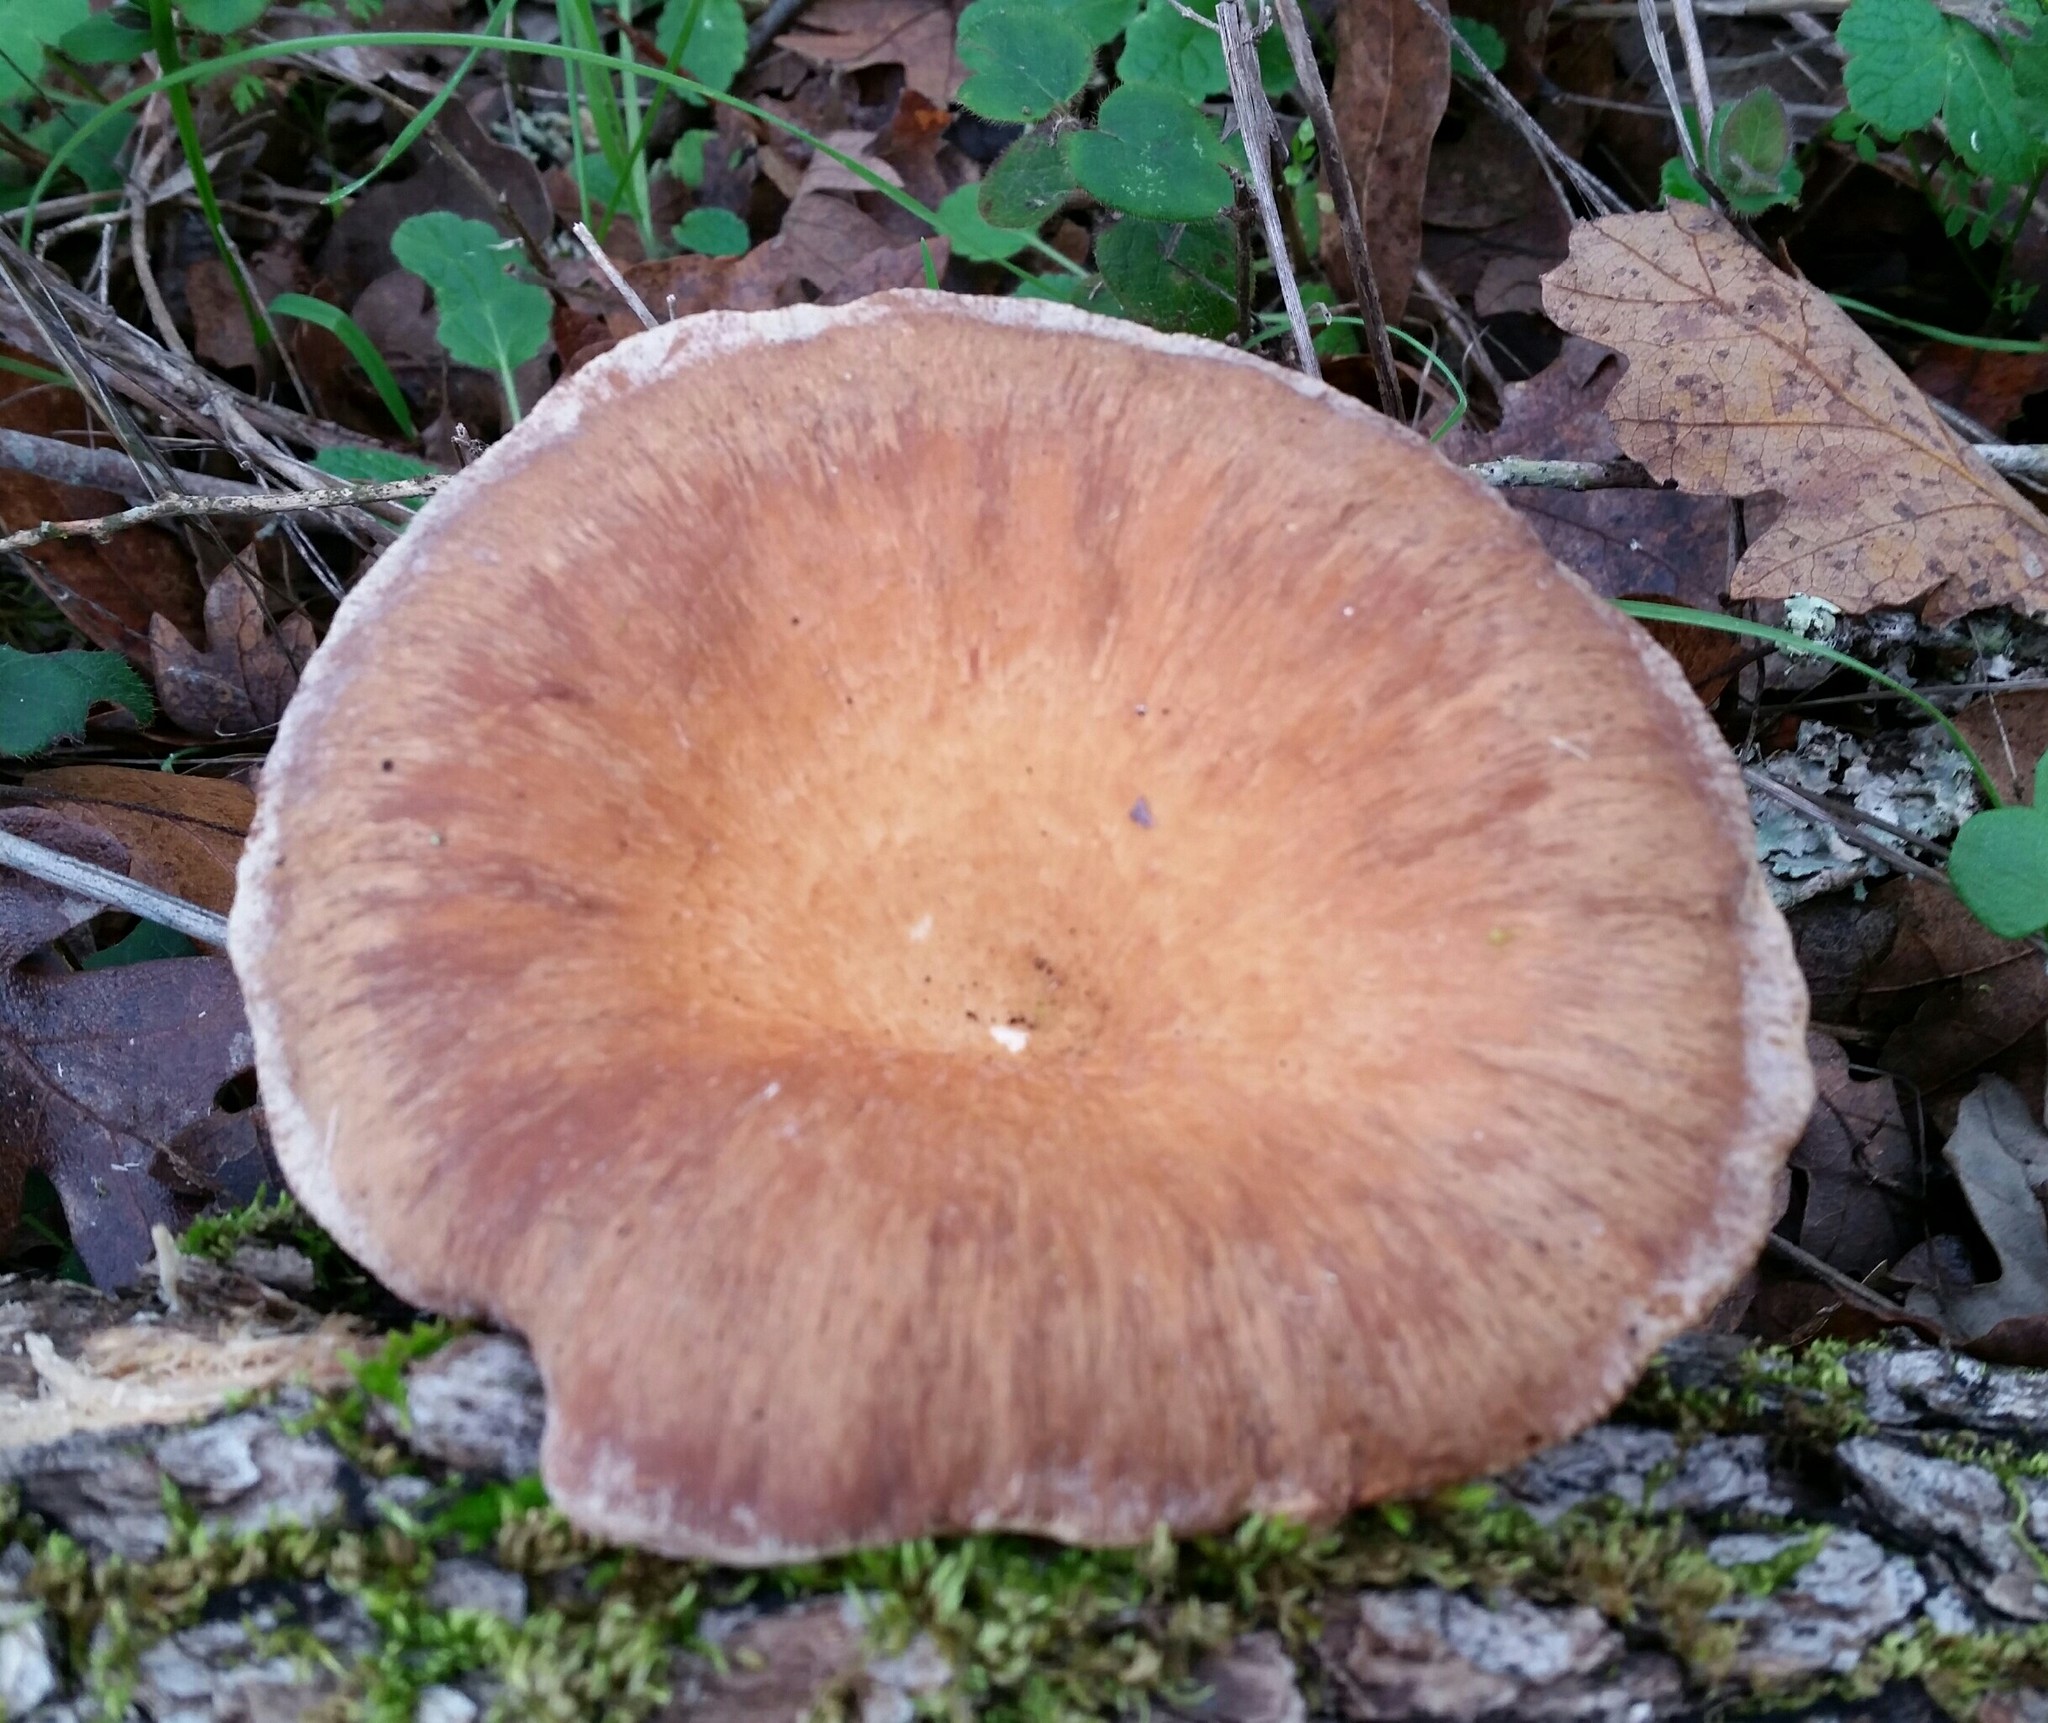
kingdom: Fungi
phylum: Basidiomycota
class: Agaricomycetes
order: Polyporales
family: Panaceae
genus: Panus
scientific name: Panus conchatus
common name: Lilac oysterling
